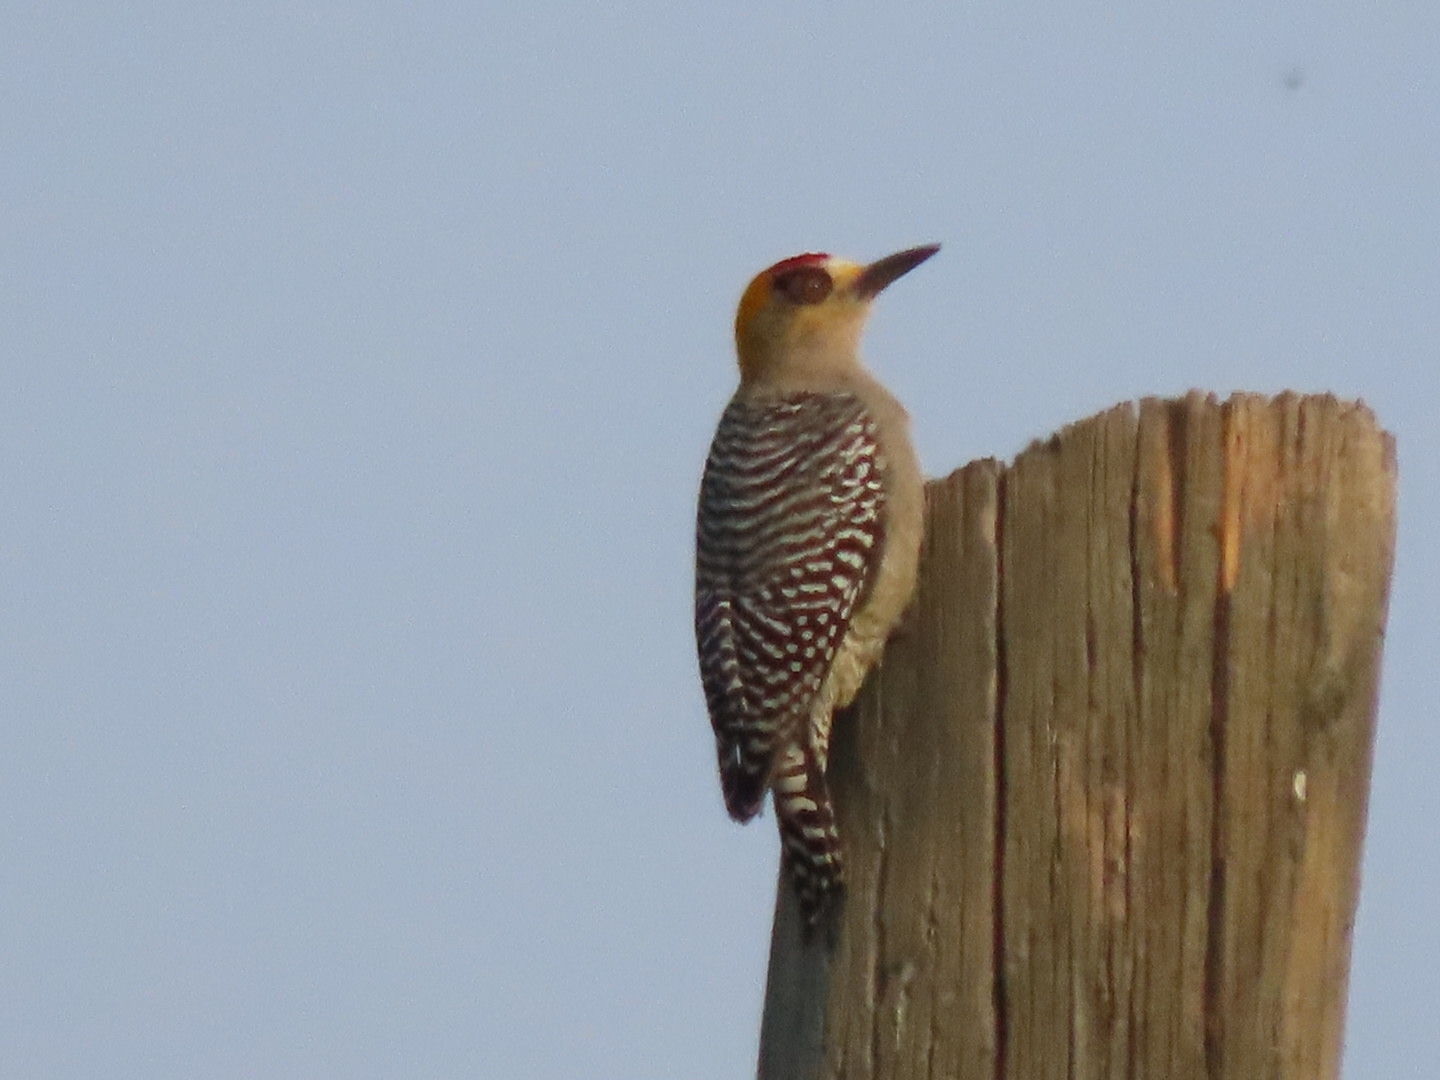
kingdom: Animalia
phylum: Chordata
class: Aves
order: Piciformes
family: Picidae
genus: Melanerpes
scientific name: Melanerpes chrysogenys
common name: Golden-cheeked woodpecker
